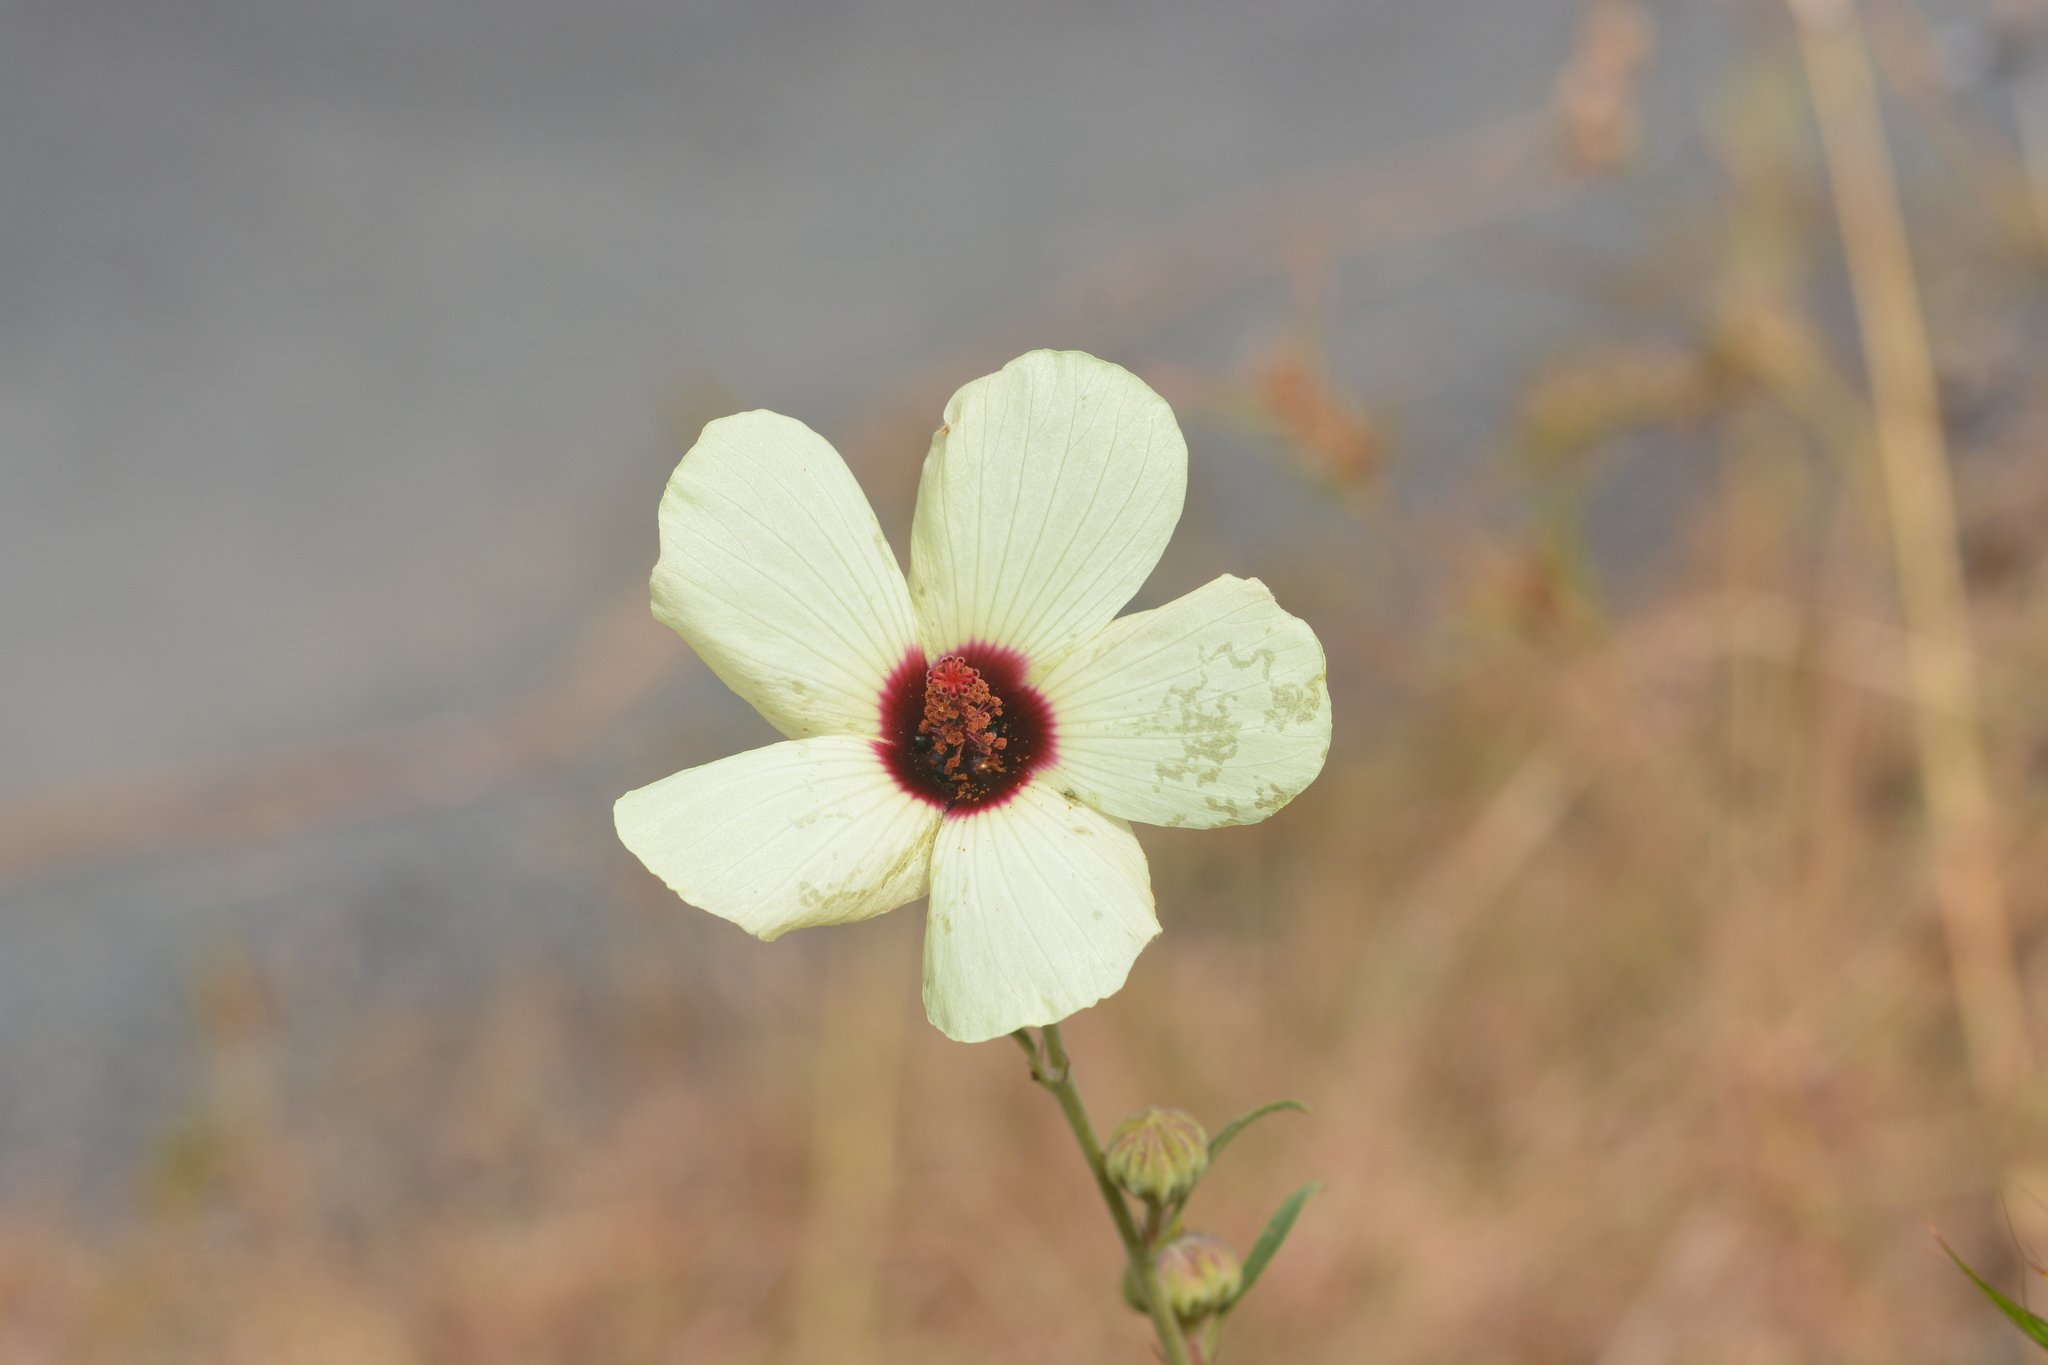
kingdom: Plantae
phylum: Tracheophyta
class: Magnoliopsida
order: Malvales
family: Malvaceae
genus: Decaschistia
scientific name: Decaschistia trilobata
